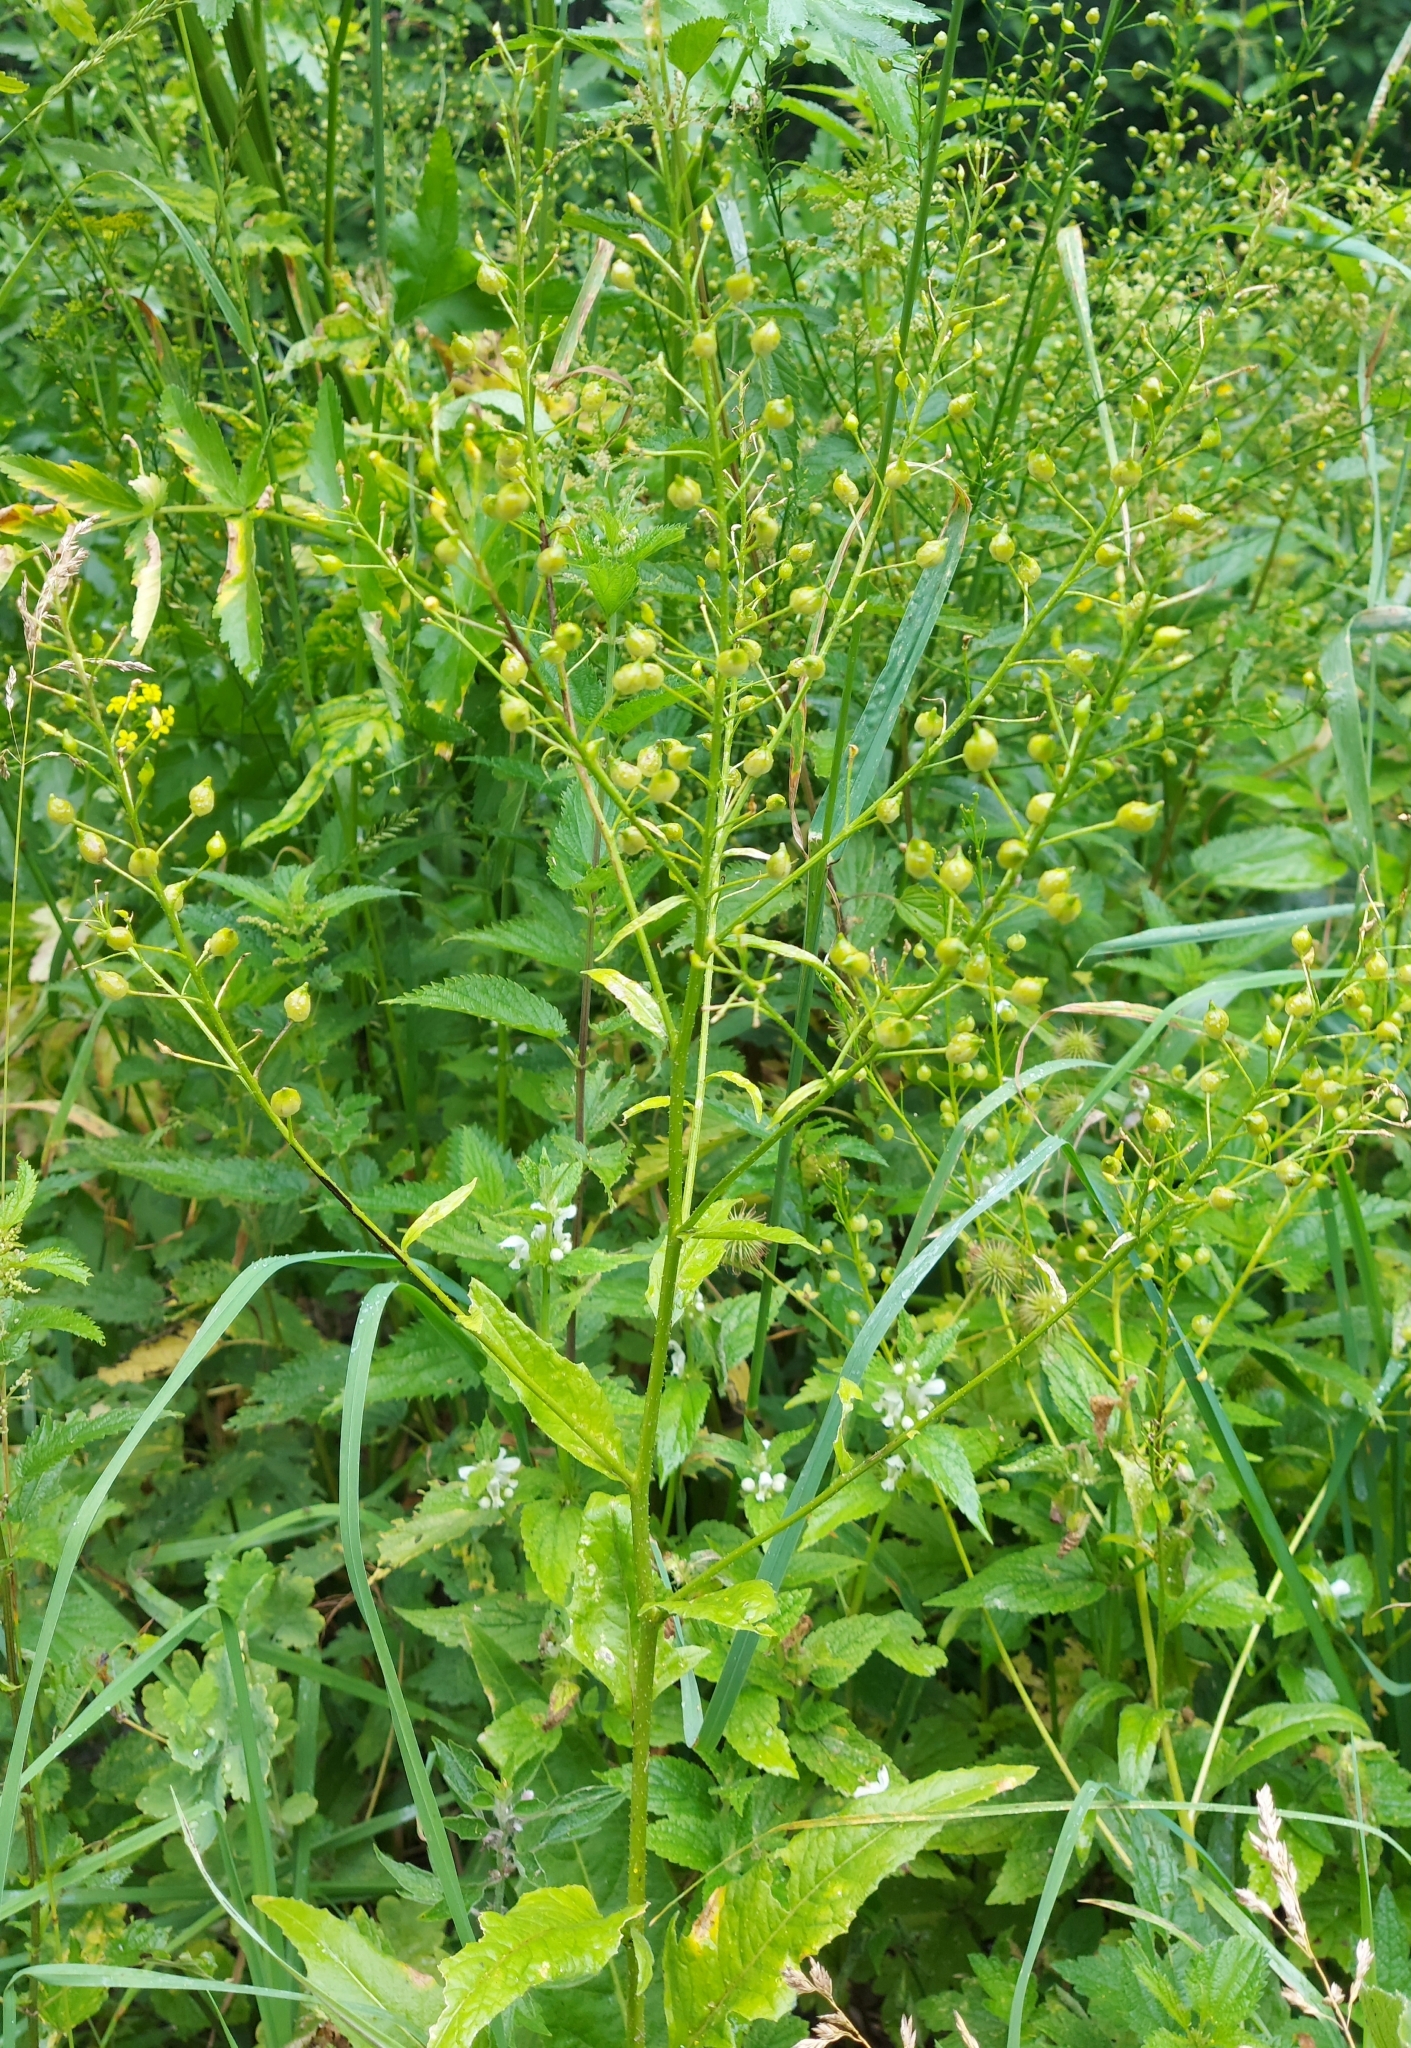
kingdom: Plantae
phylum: Tracheophyta
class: Magnoliopsida
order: Brassicales
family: Brassicaceae
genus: Bunias
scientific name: Bunias orientalis
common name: Warty-cabbage
